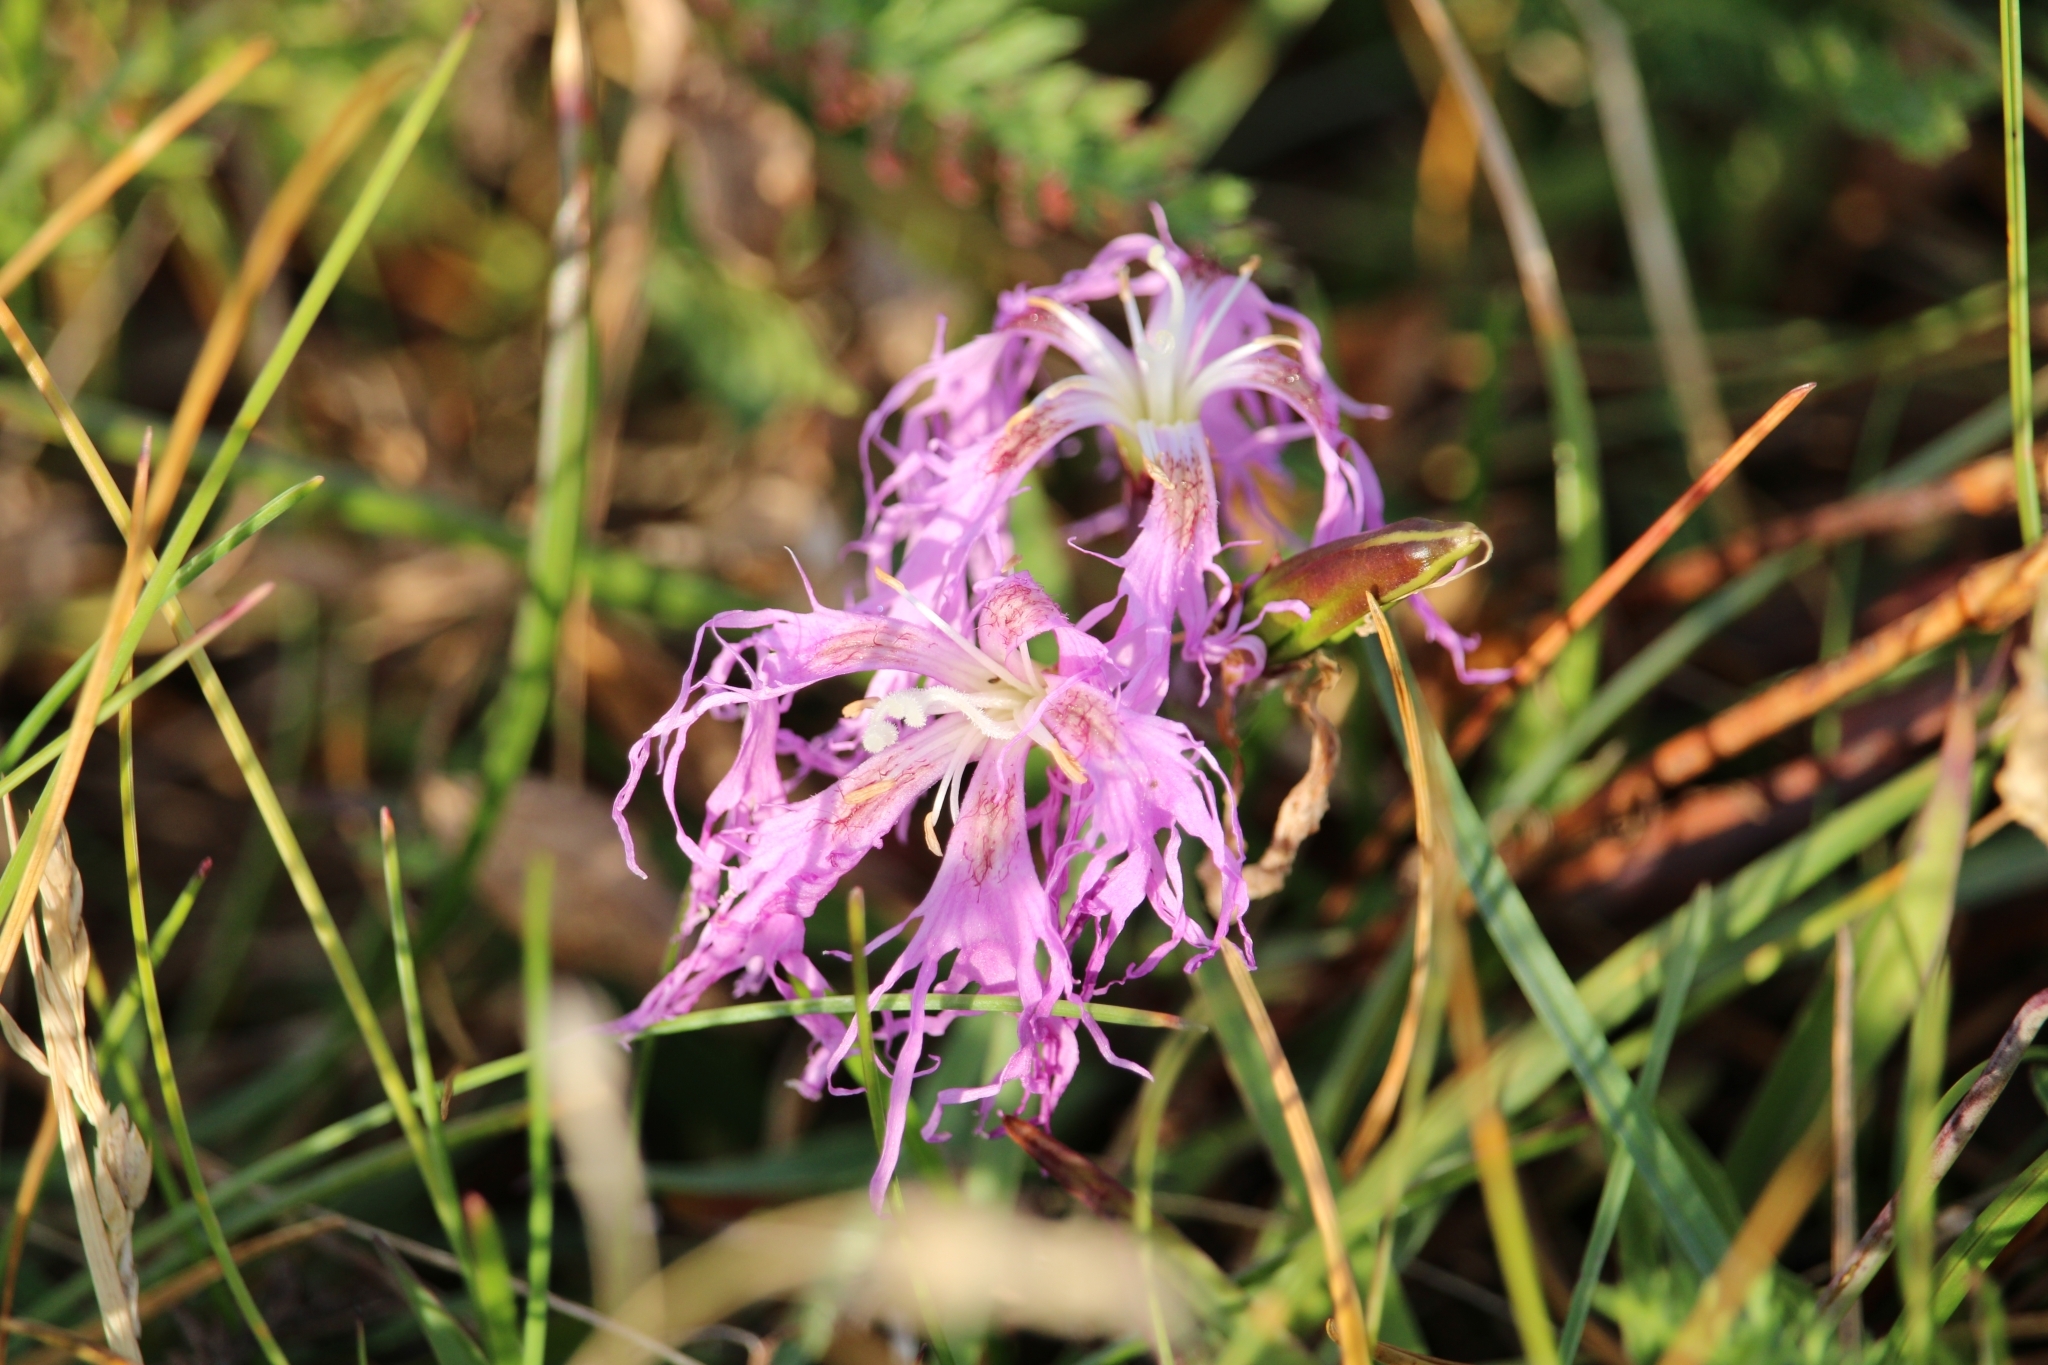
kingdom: Plantae
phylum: Tracheophyta
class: Magnoliopsida
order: Caryophyllales
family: Caryophyllaceae
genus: Dianthus
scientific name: Dianthus superbus
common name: Fringed pink
